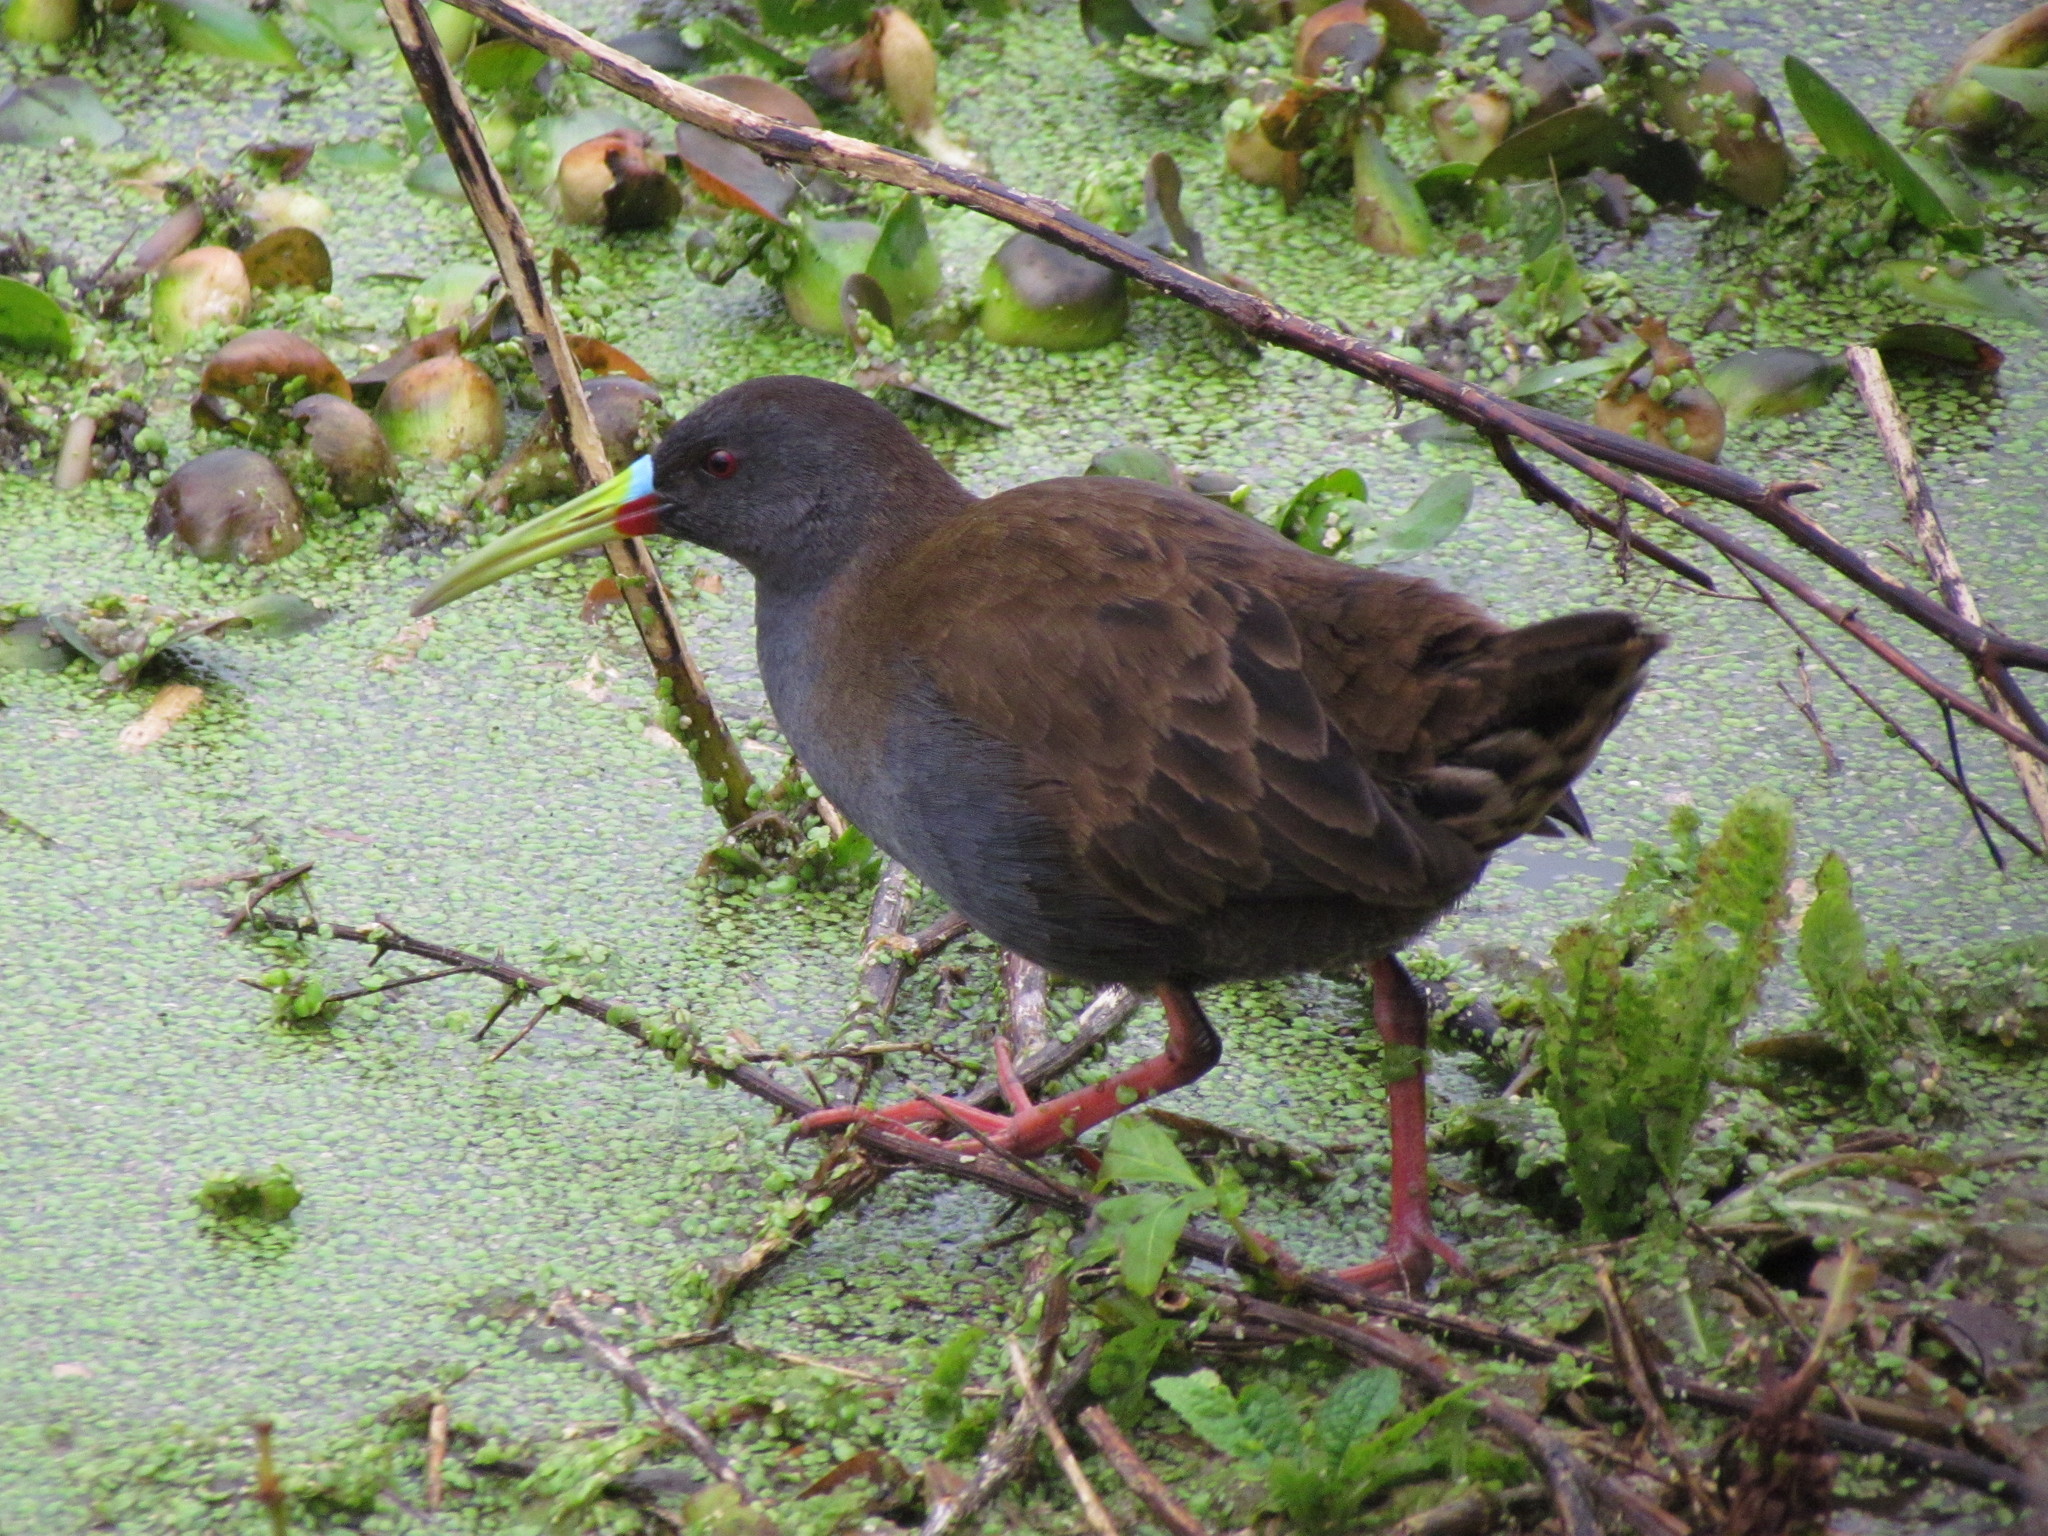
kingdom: Animalia
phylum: Chordata
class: Aves
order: Gruiformes
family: Rallidae
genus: Pardirallus
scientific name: Pardirallus sanguinolentus
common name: Plumbeous rail
